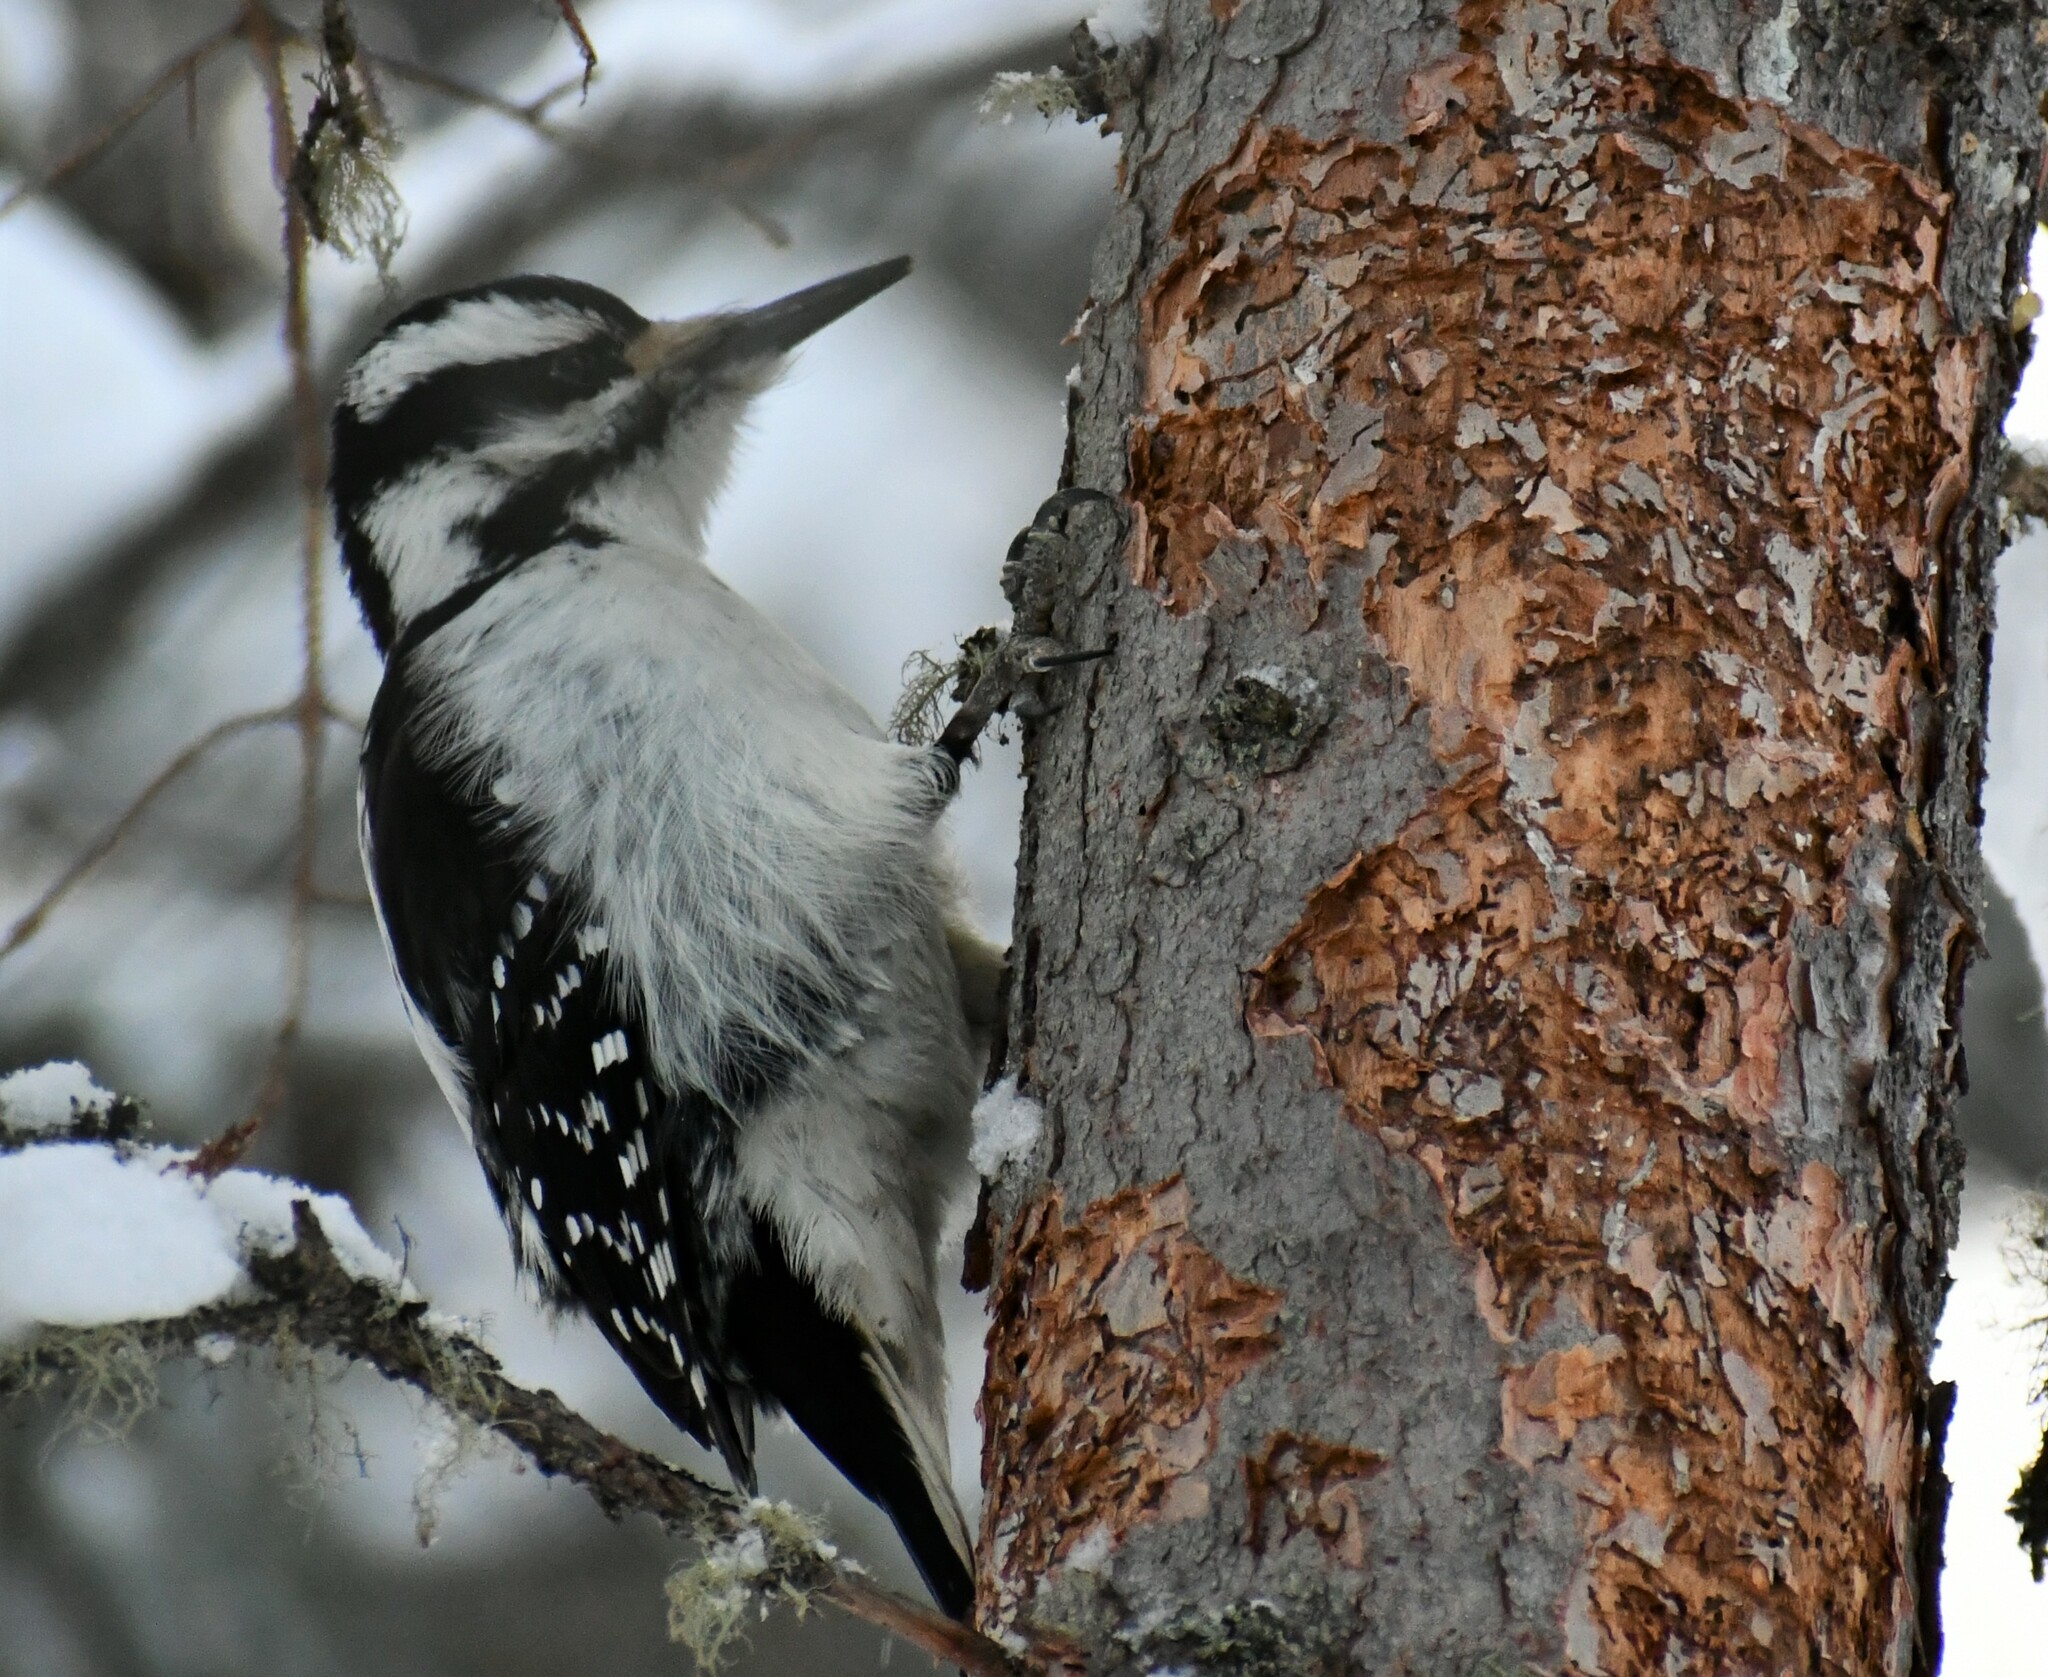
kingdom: Animalia
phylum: Chordata
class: Aves
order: Piciformes
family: Picidae
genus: Leuconotopicus
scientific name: Leuconotopicus villosus
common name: Hairy woodpecker
